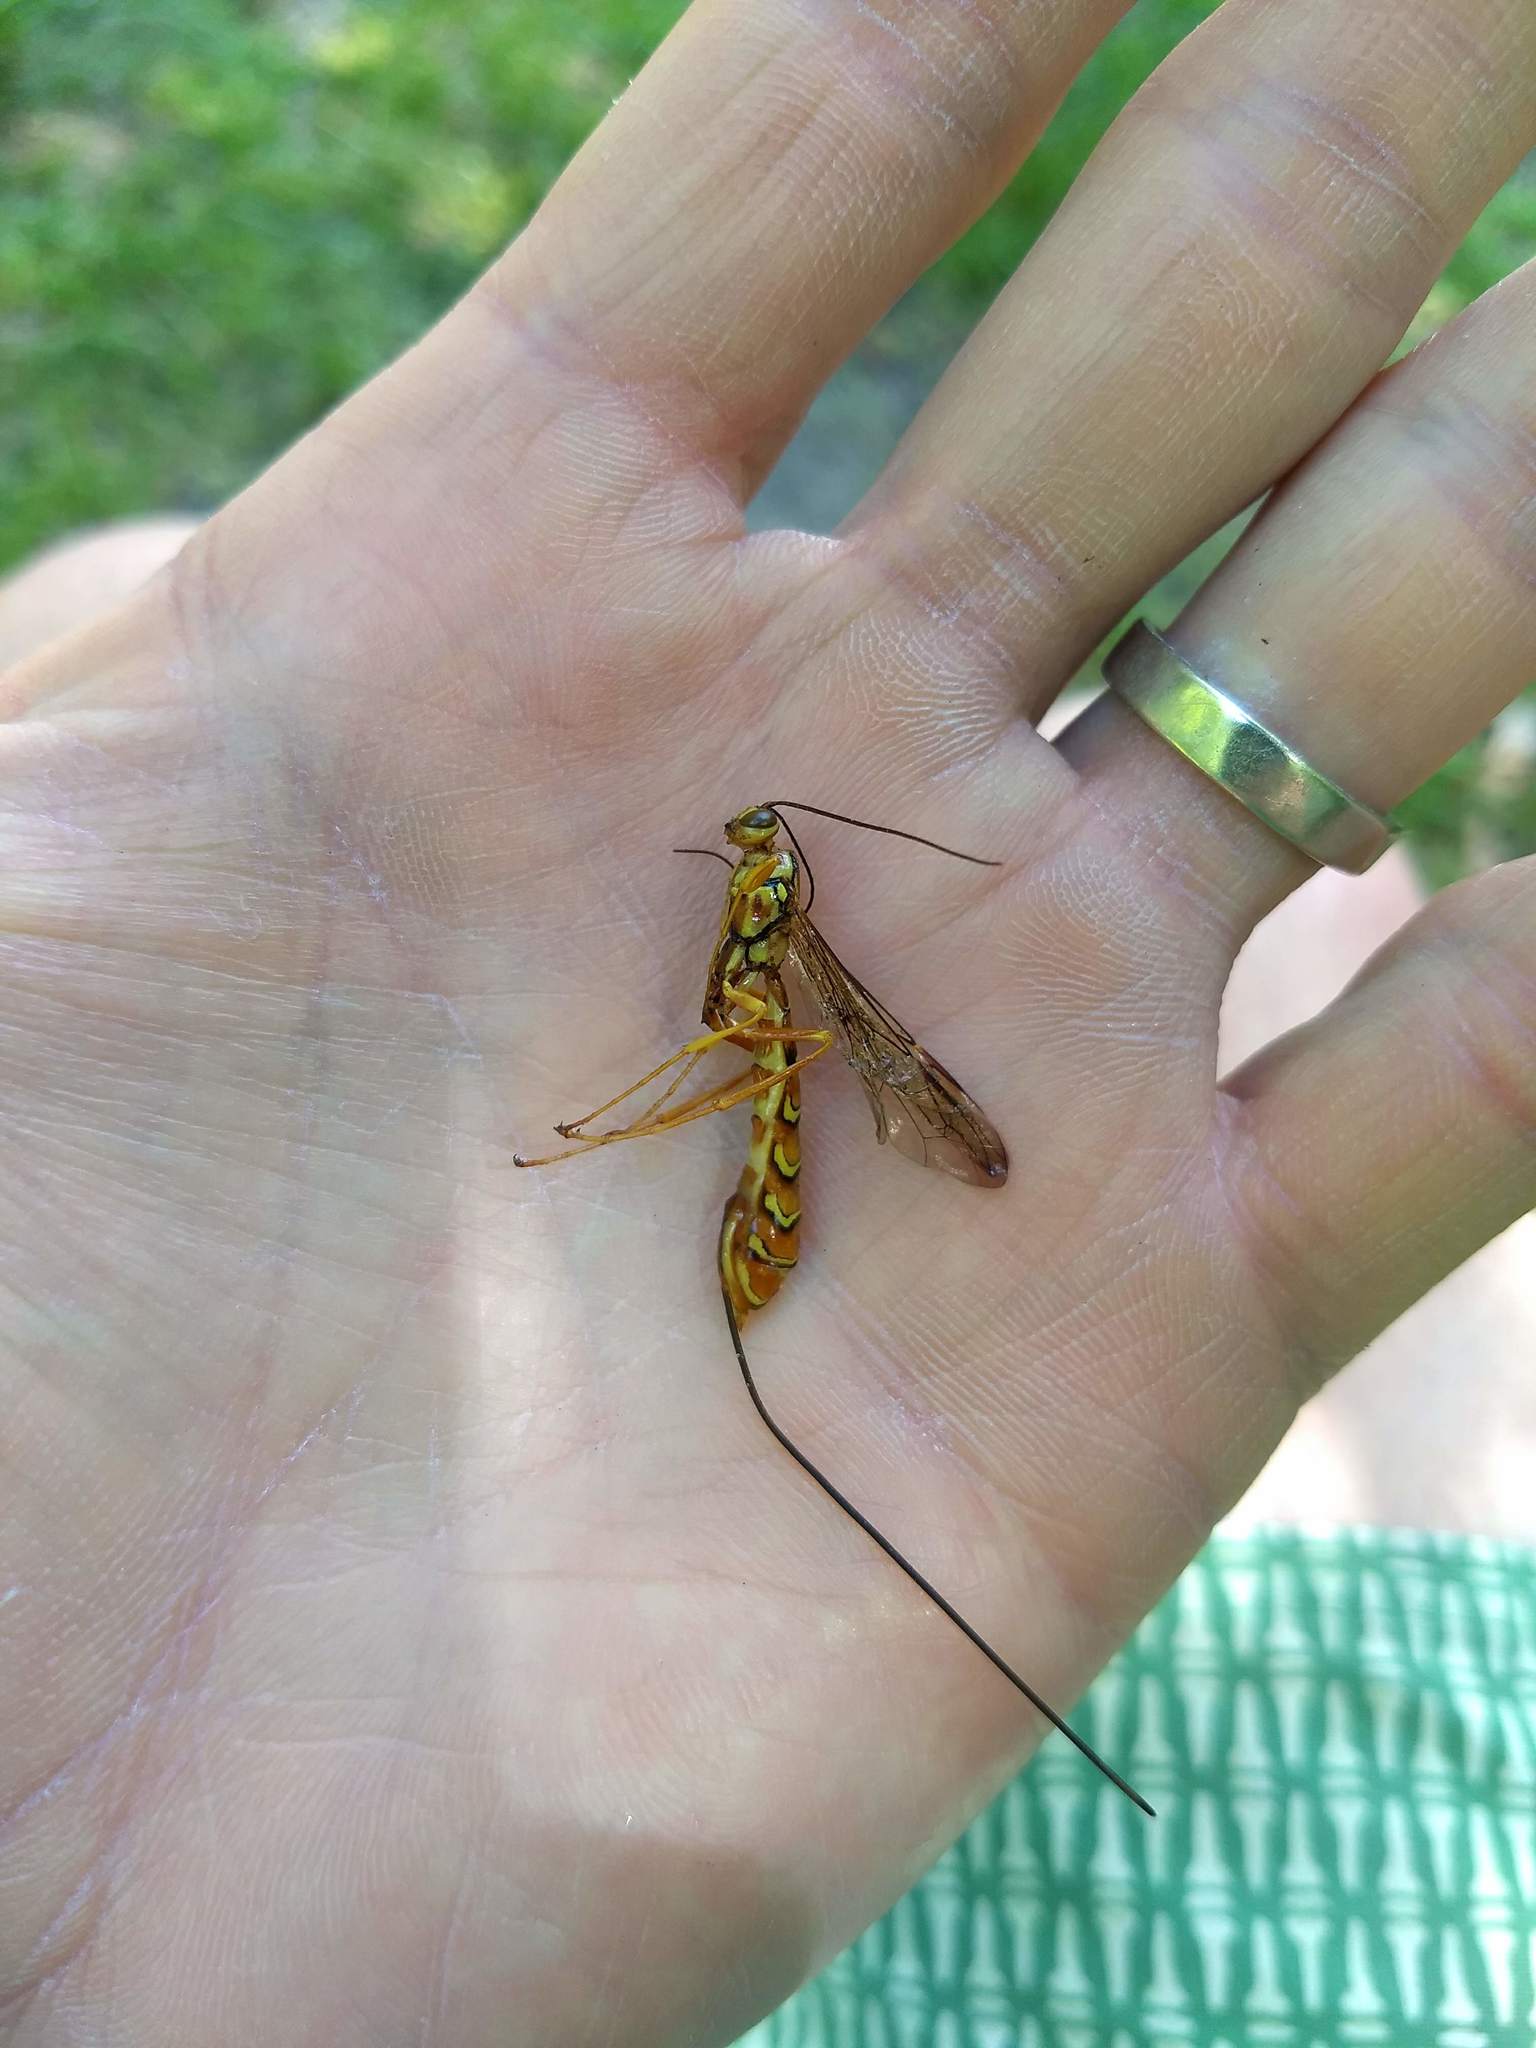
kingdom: Animalia
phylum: Arthropoda
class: Insecta
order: Hymenoptera
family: Ichneumonidae
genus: Megarhyssa
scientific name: Megarhyssa greenei
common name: Greene's giant ichneumonid wasp
